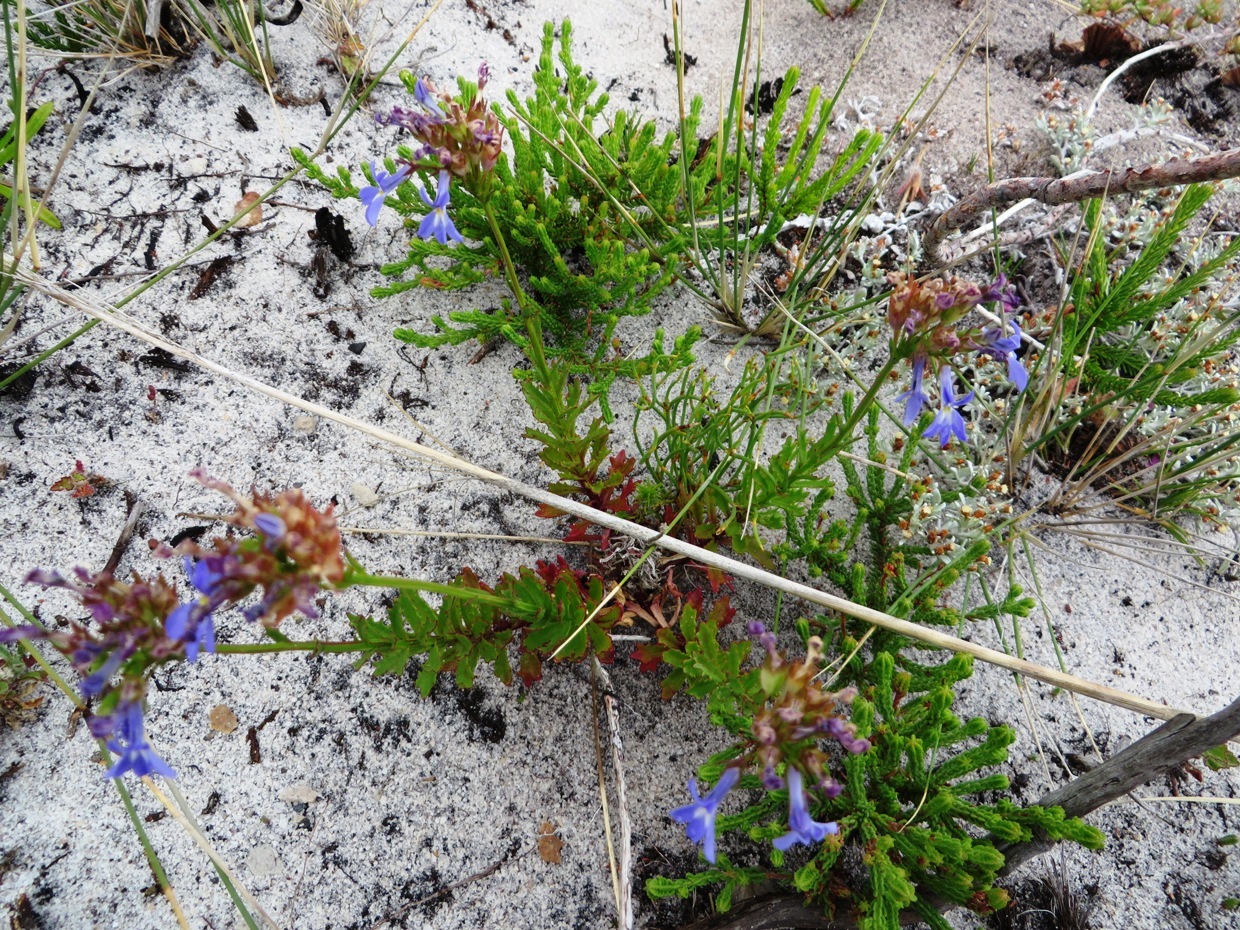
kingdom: Plantae
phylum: Tracheophyta
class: Magnoliopsida
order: Asterales
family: Campanulaceae
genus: Lobelia
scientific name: Lobelia comosa
